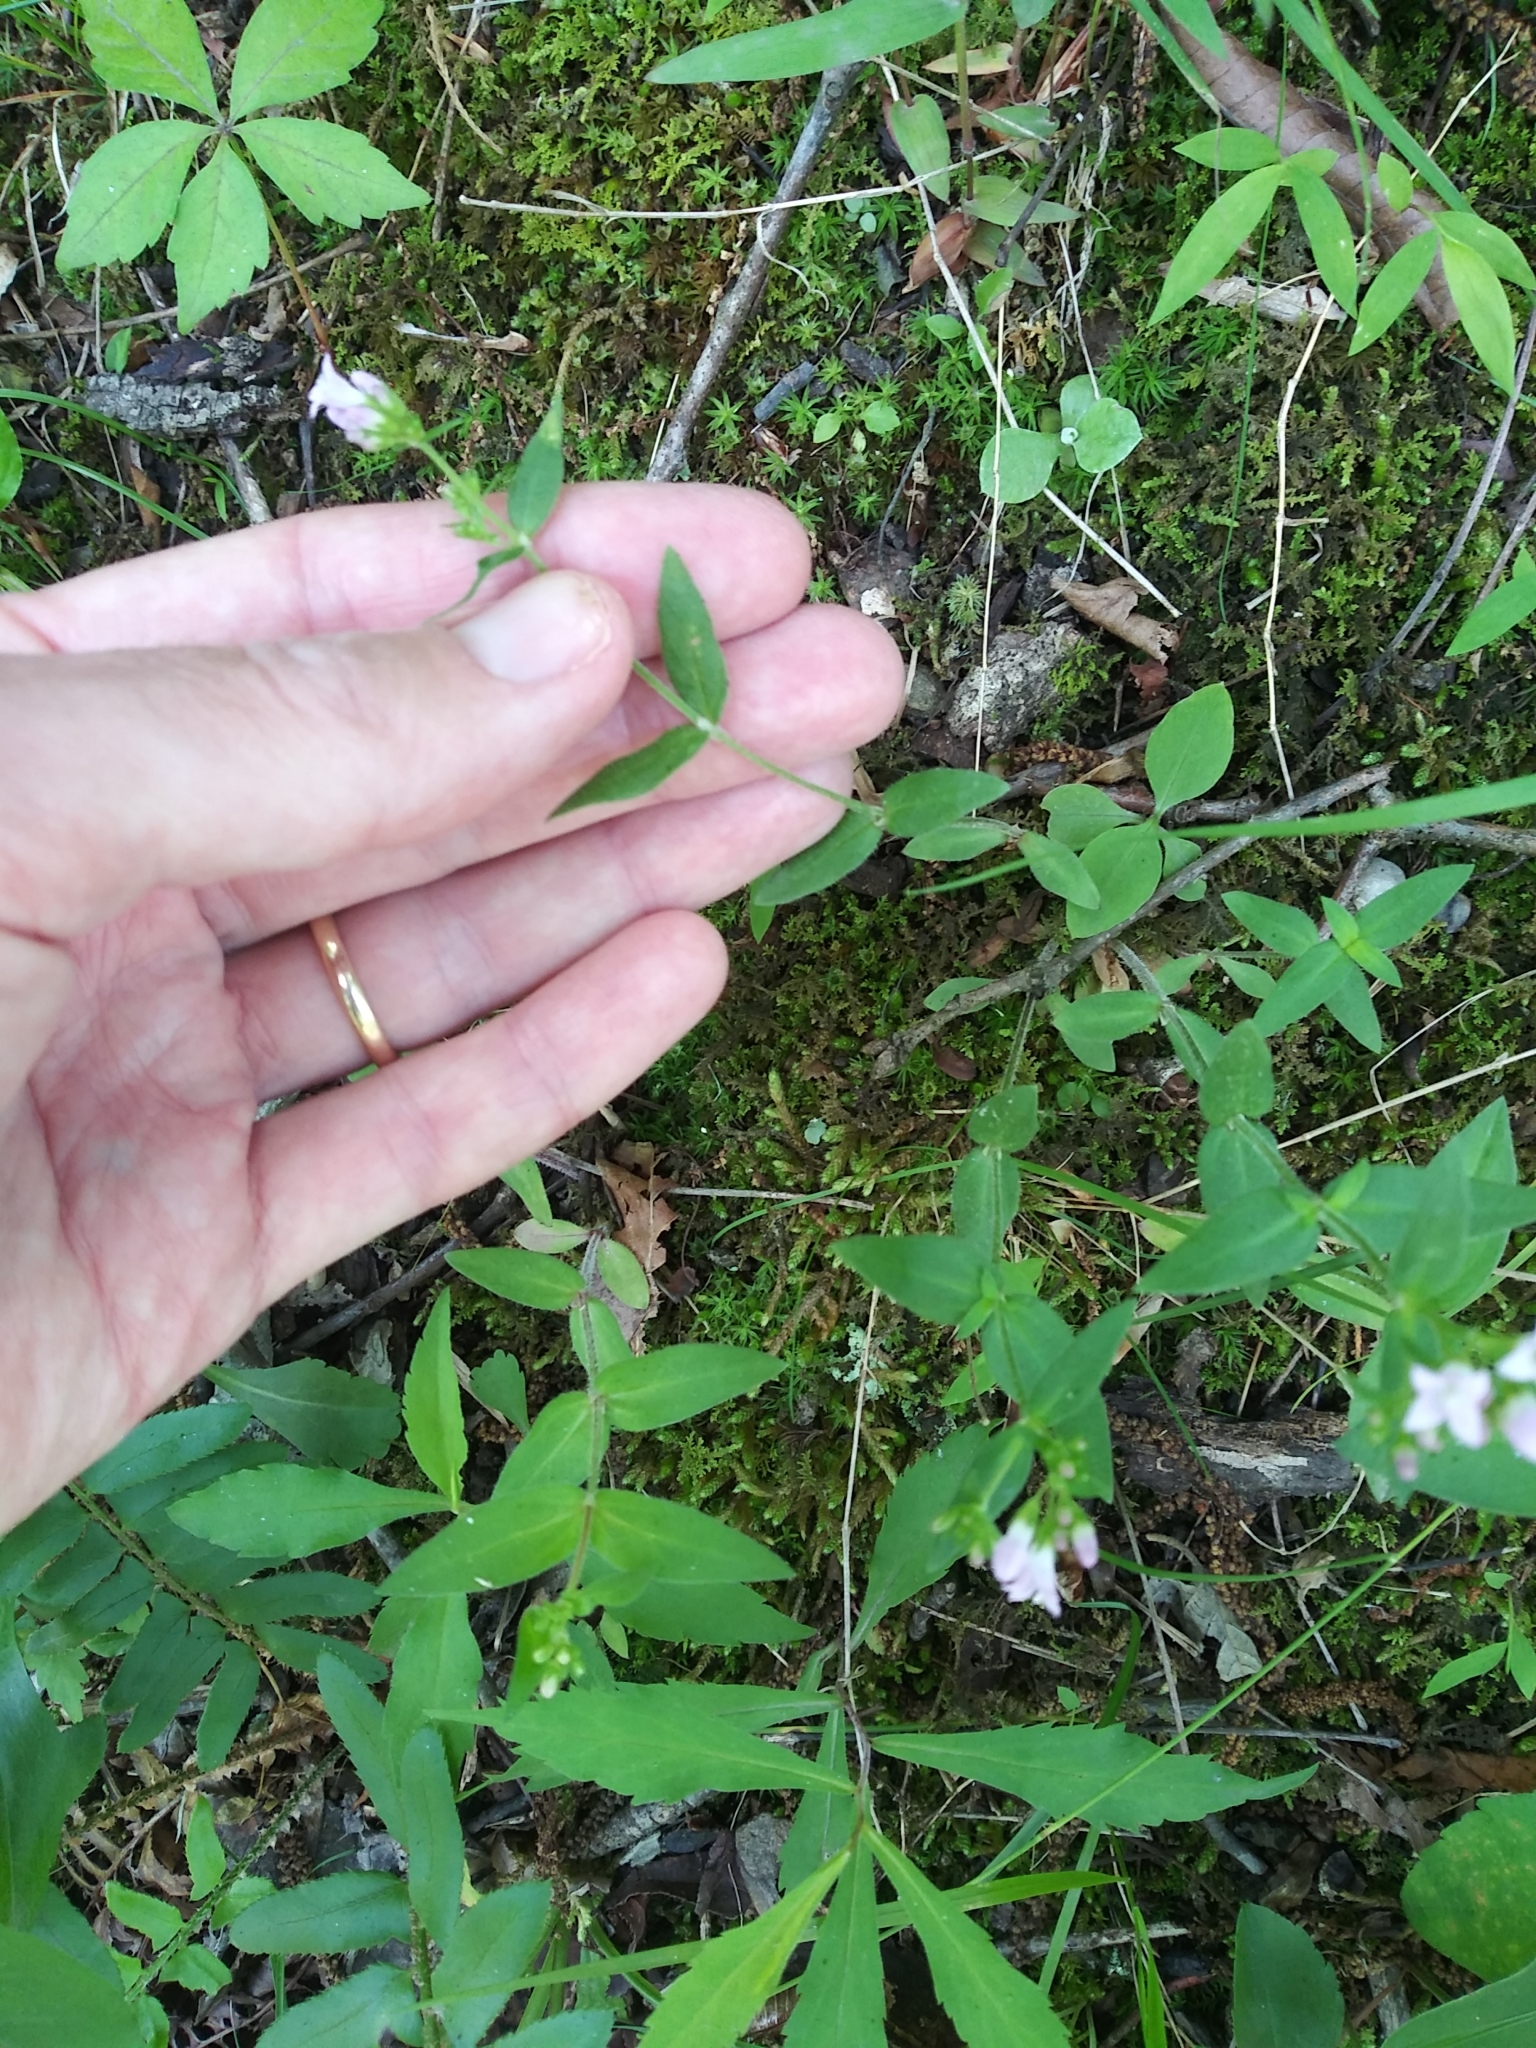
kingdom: Plantae
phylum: Tracheophyta
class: Magnoliopsida
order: Gentianales
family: Rubiaceae
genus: Houstonia
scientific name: Houstonia purpurea
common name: Summer bluet
